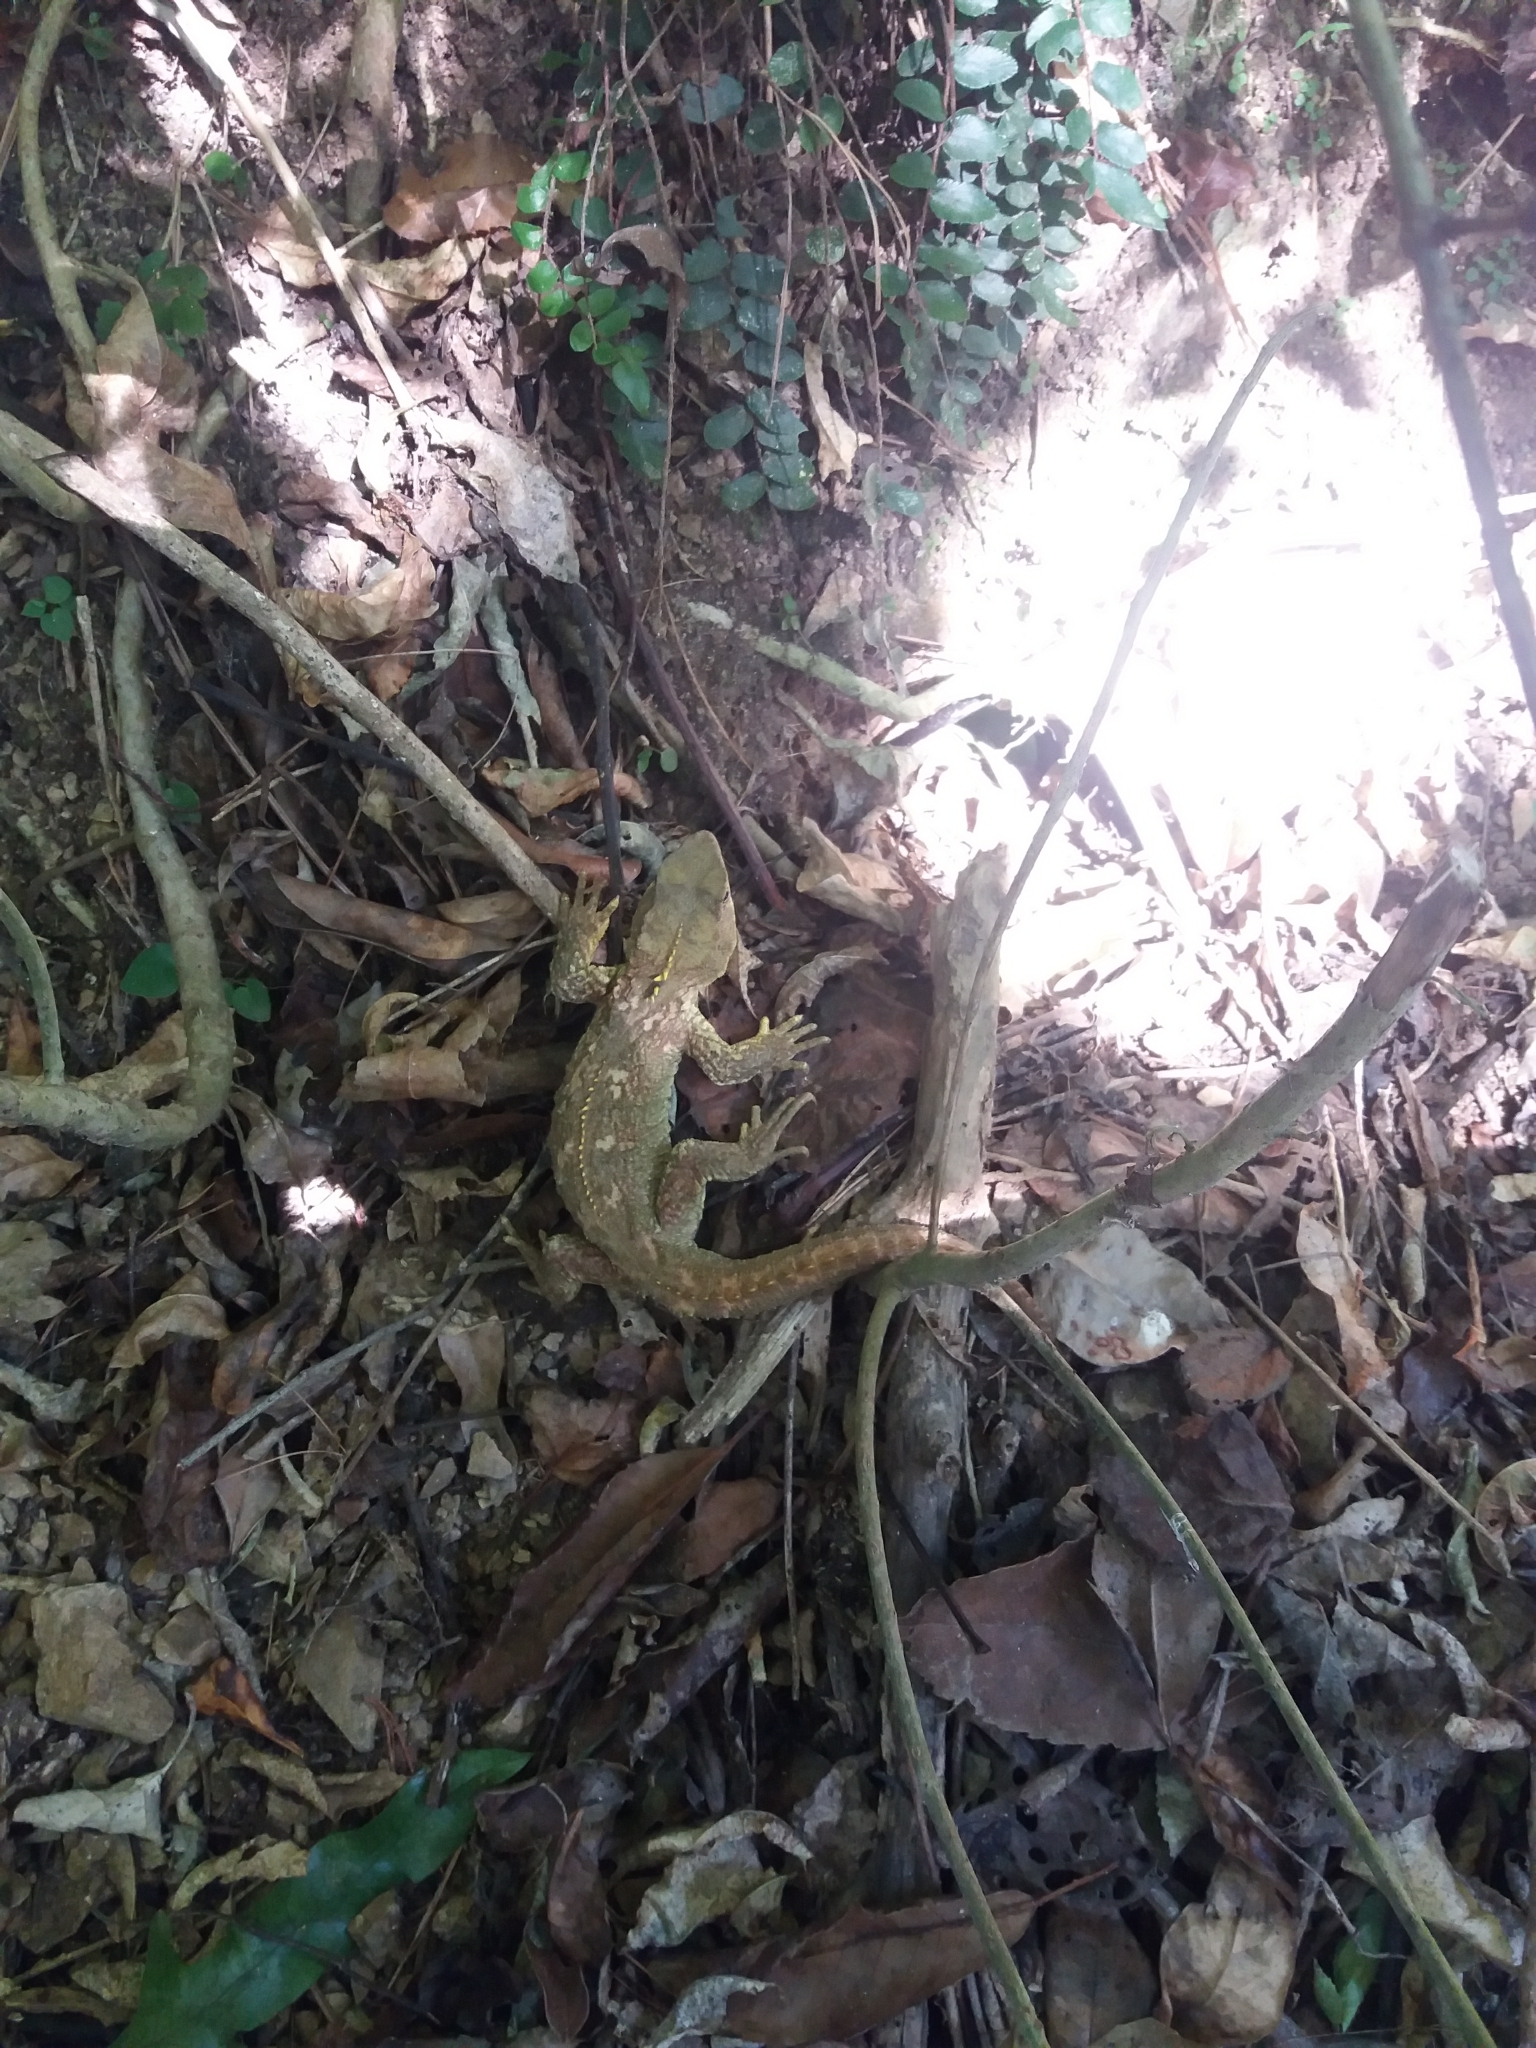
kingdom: Animalia
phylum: Chordata
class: Sphenodontia
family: Sphenodontidae
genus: Sphenodon
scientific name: Sphenodon punctatus
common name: Tuatara
